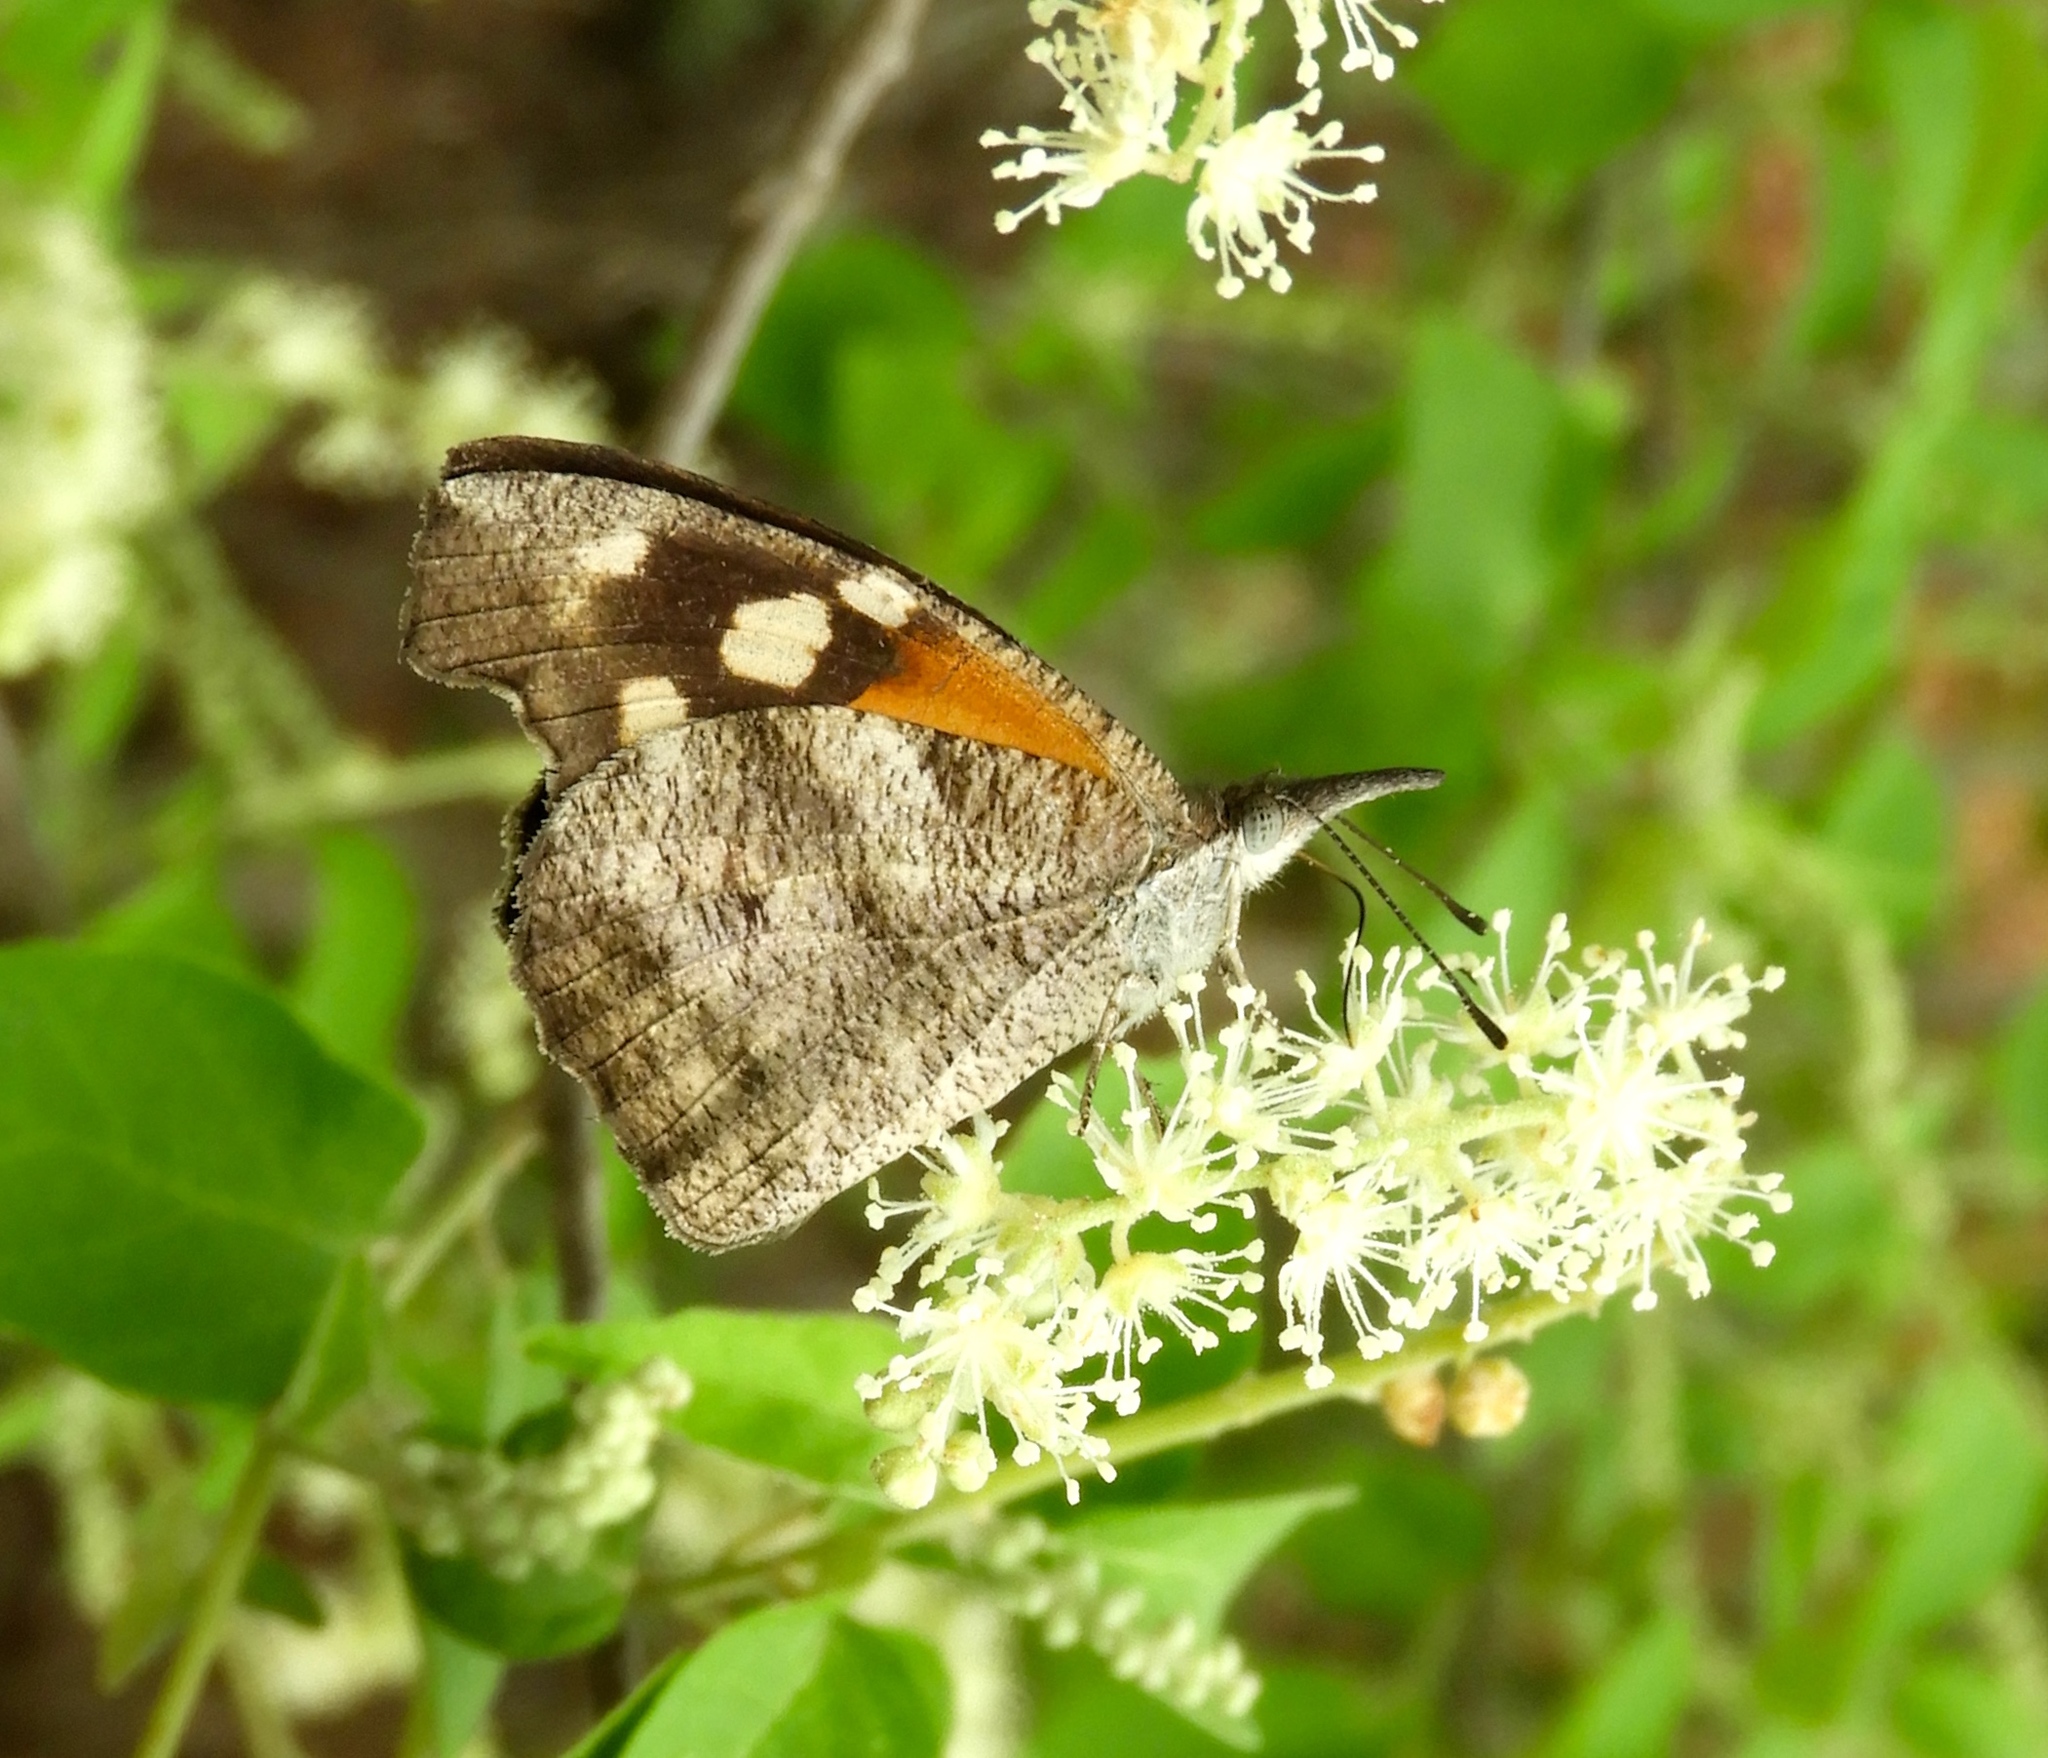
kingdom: Animalia
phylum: Arthropoda
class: Insecta
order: Lepidoptera
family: Nymphalidae
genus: Libytheana
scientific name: Libytheana carinenta
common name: American snout
